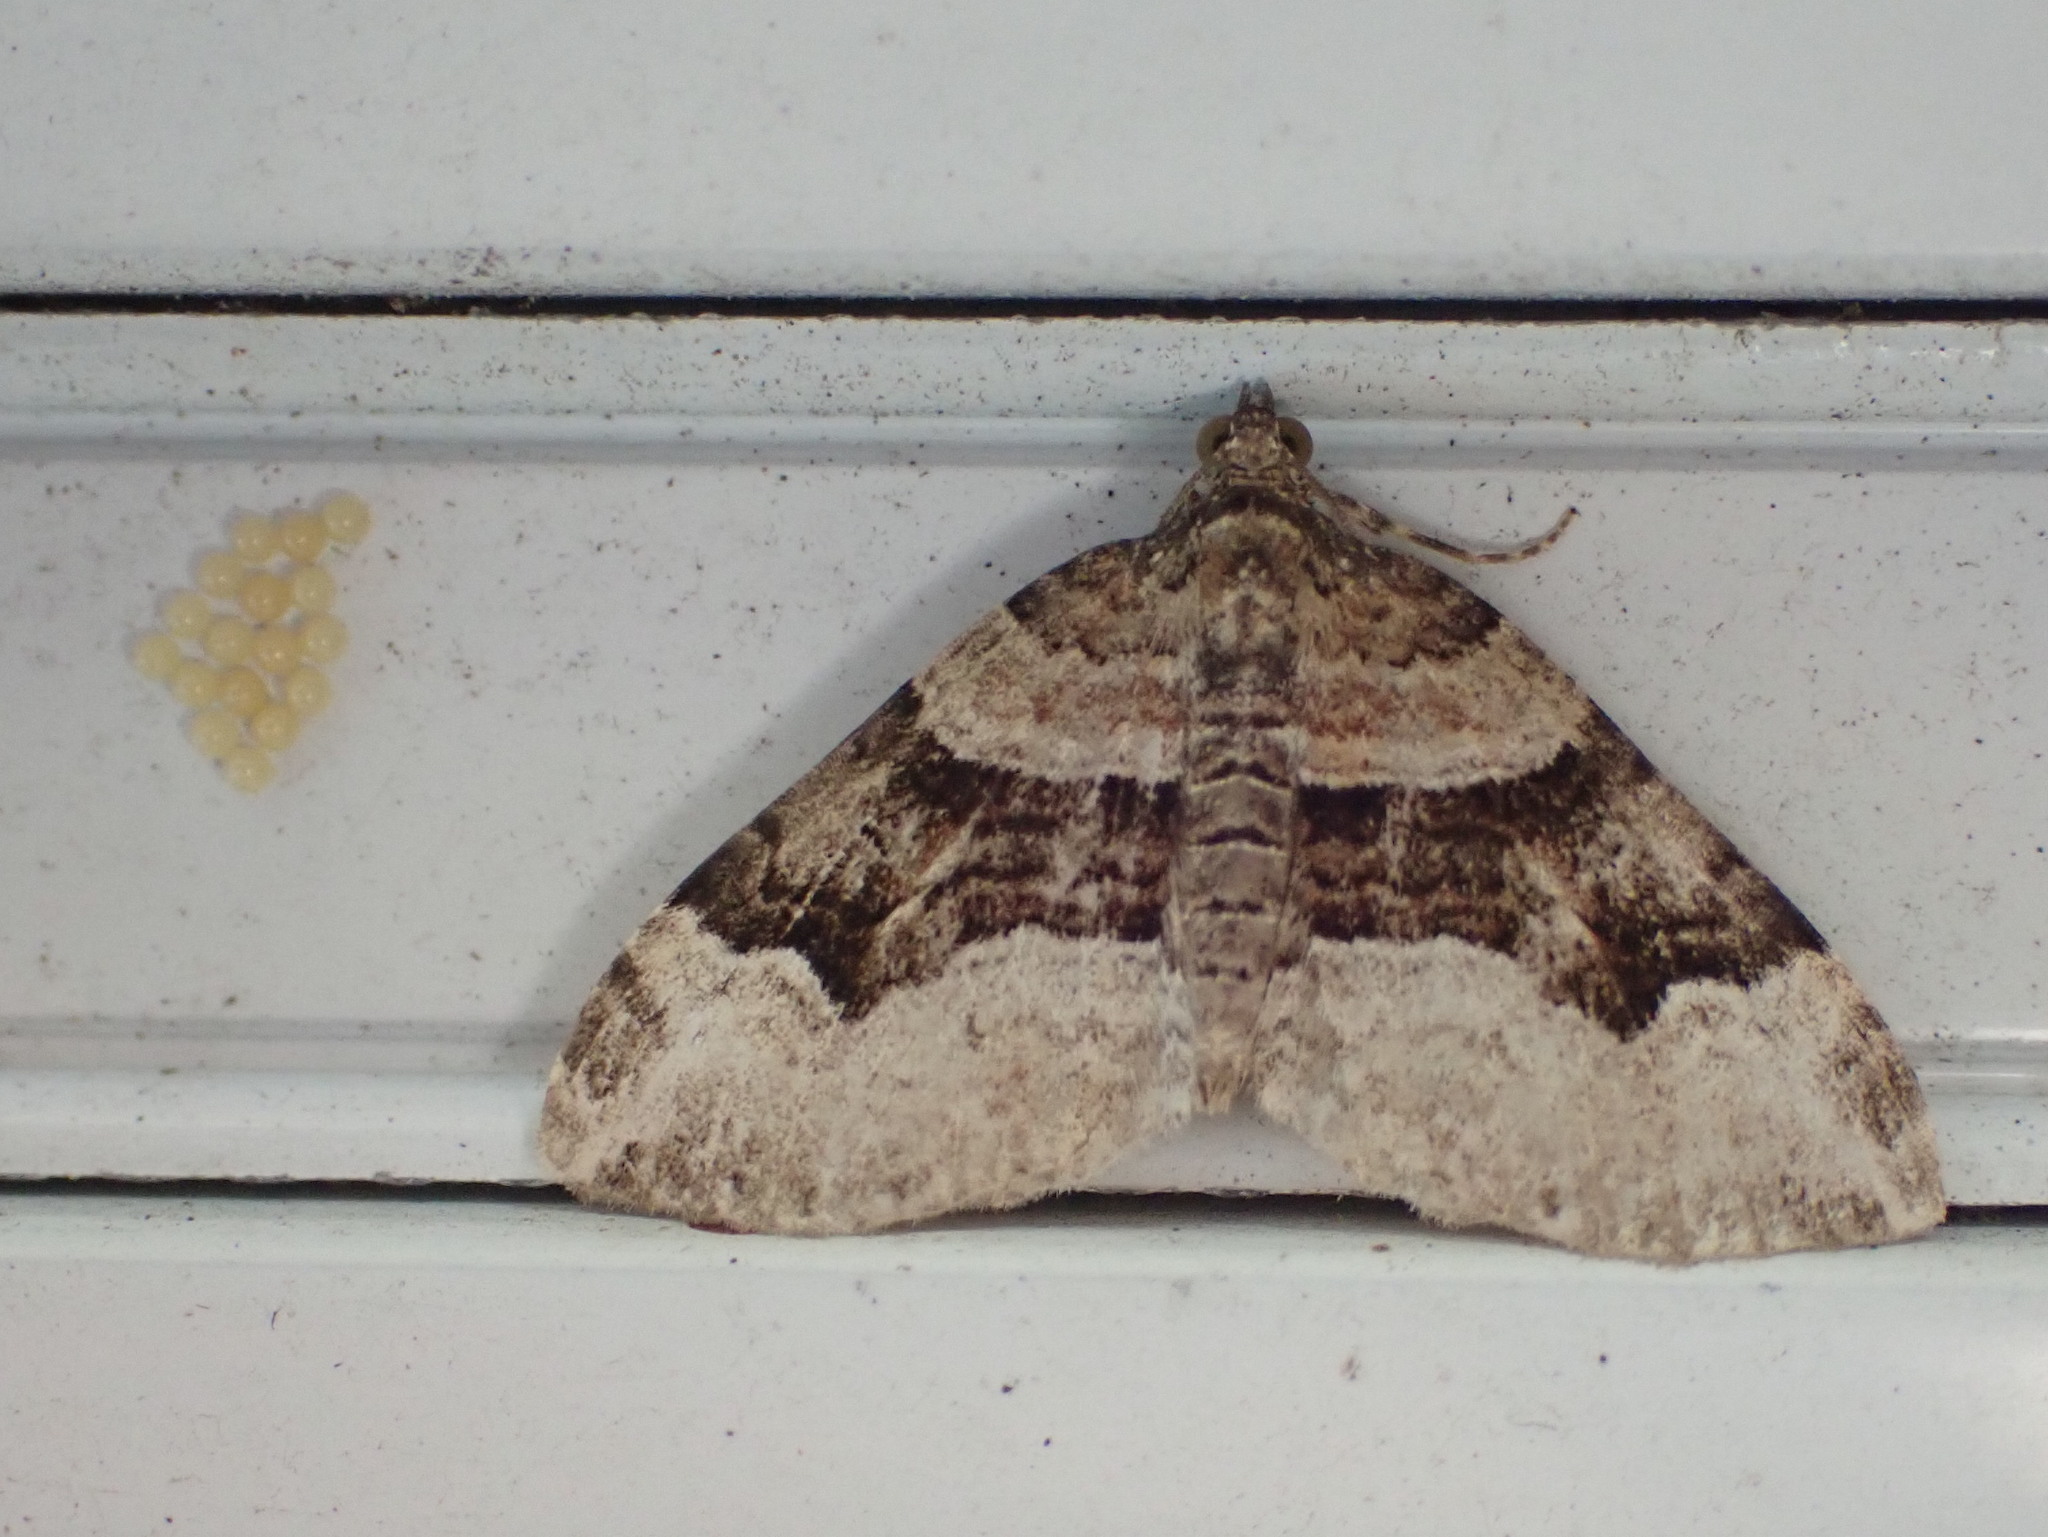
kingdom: Animalia
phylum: Arthropoda
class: Insecta
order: Lepidoptera
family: Geometridae
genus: Xanthorhoe
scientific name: Xanthorhoe lacustrata
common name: Toothed brown carpet
